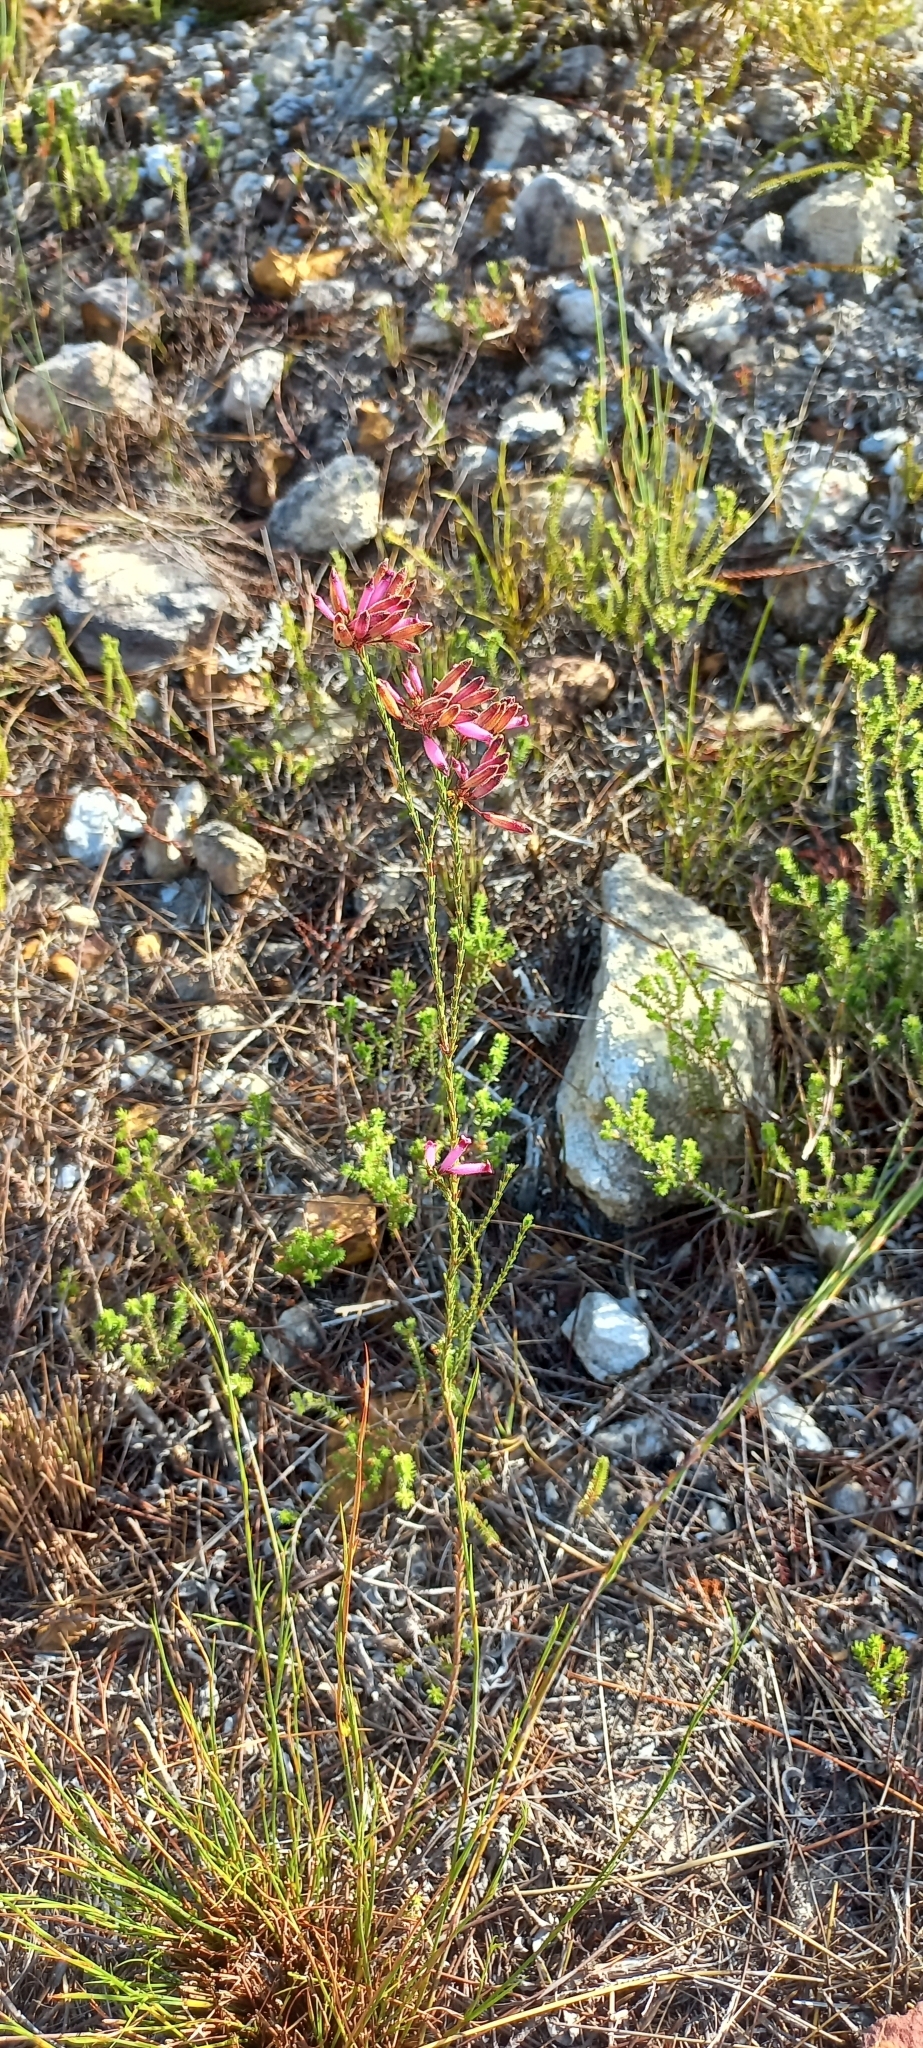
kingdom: Plantae
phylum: Tracheophyta
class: Magnoliopsida
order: Ericales
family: Ericaceae
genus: Erica
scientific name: Erica cristata
